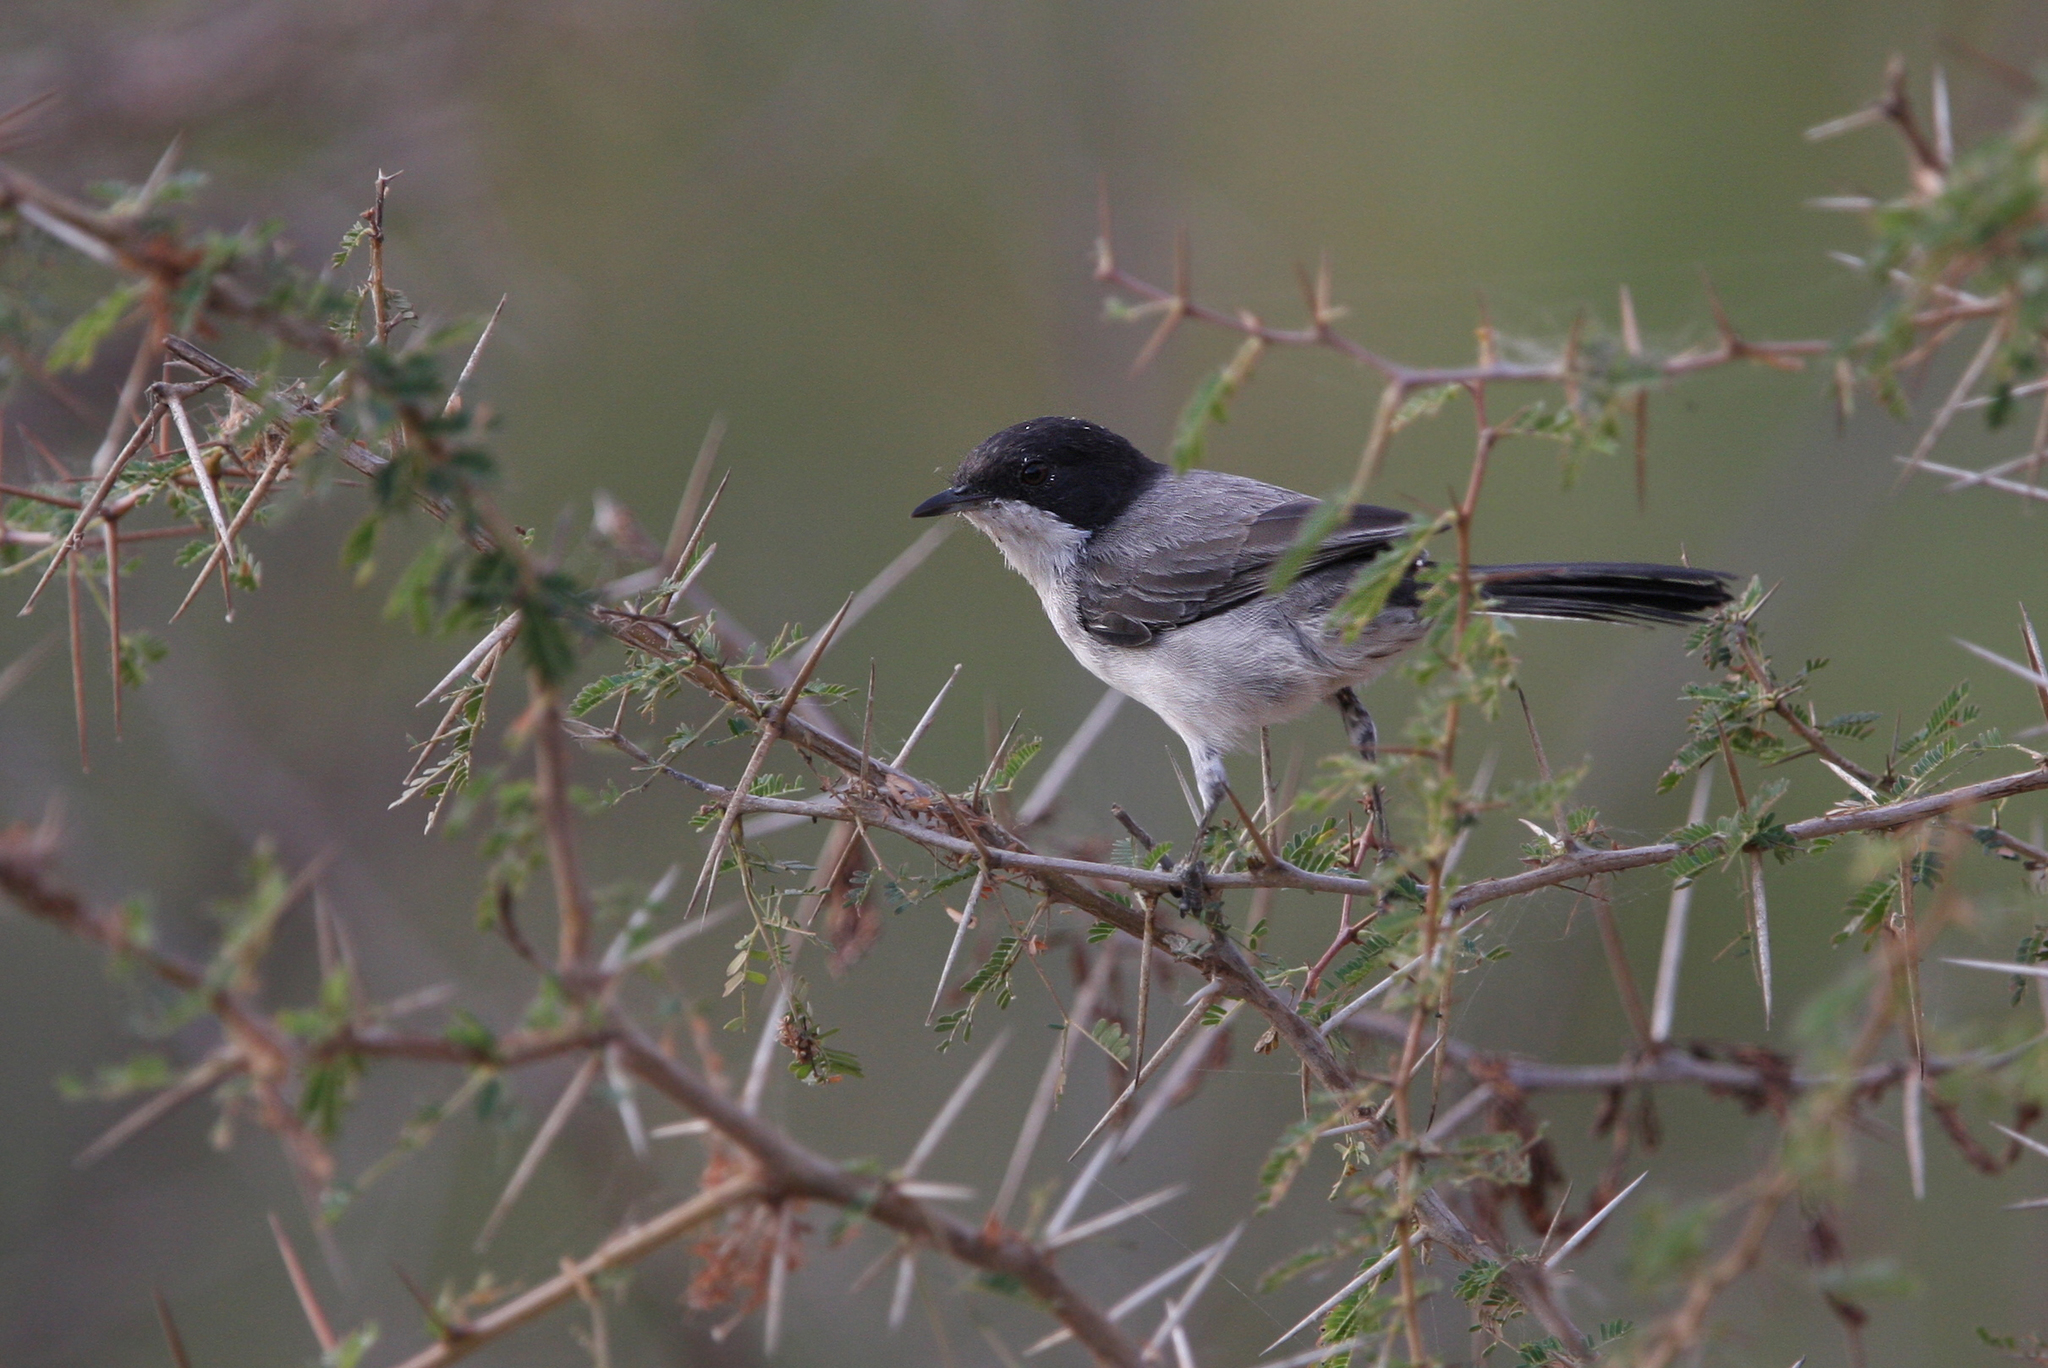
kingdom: Animalia
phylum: Chordata
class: Aves
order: Passeriformes
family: Sylviidae
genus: Sylvia
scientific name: Sylvia leucomelaena
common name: Arabian warbler
